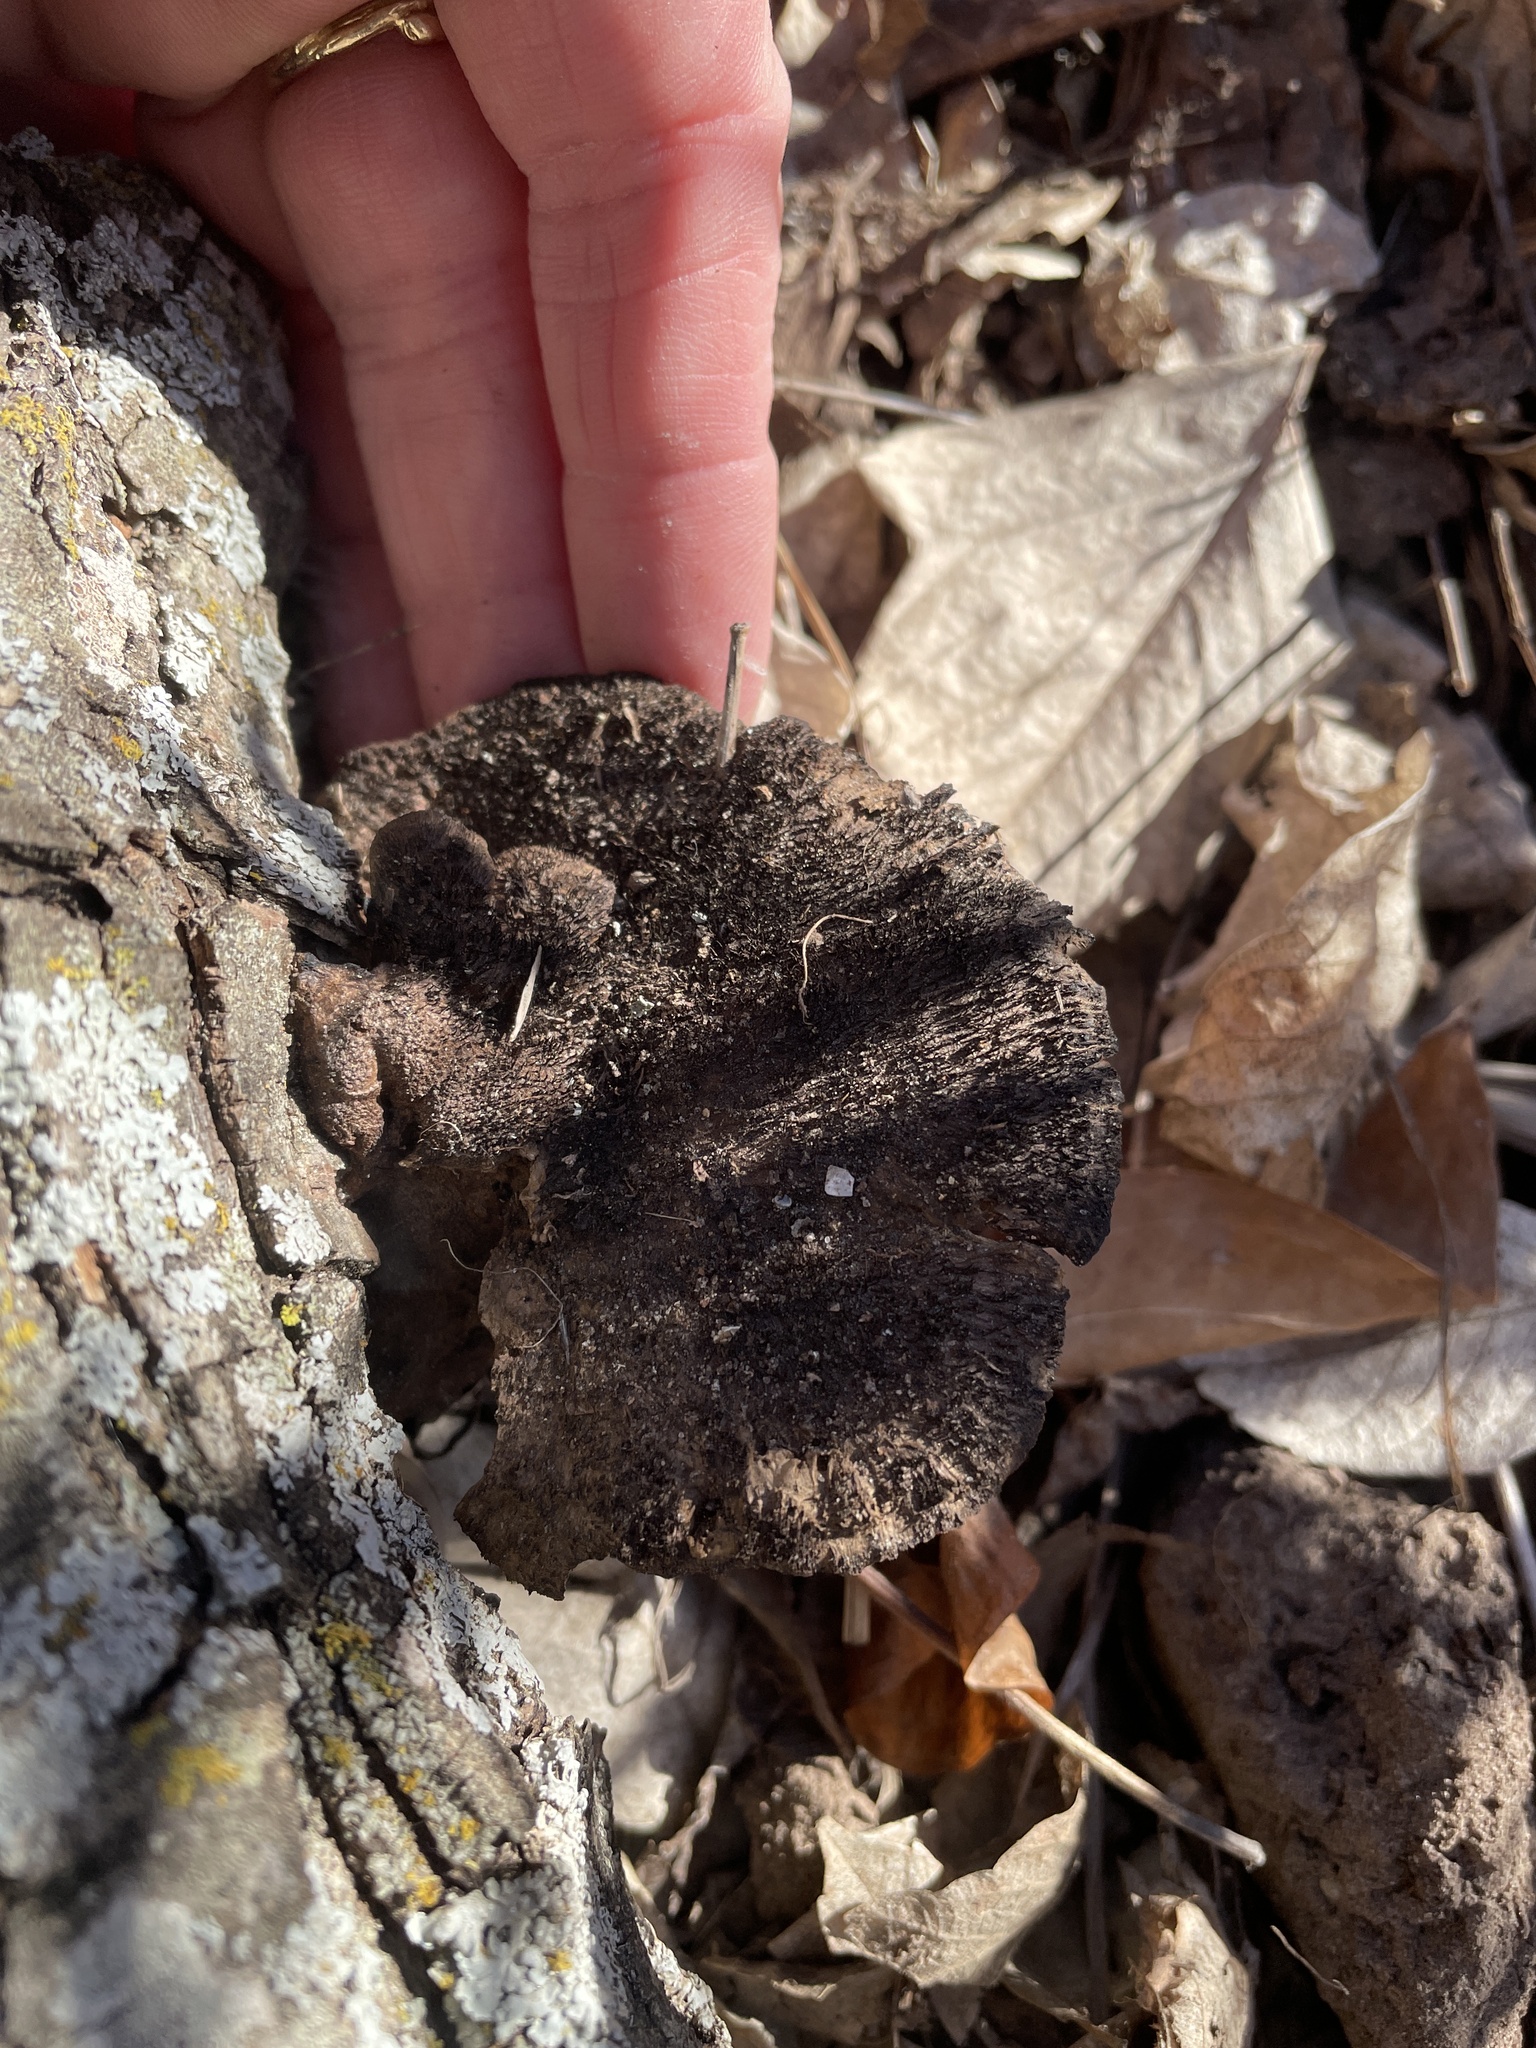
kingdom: Fungi
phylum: Basidiomycota
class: Agaricomycetes
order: Polyporales
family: Cerrenaceae
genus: Cerrena
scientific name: Cerrena hydnoides
